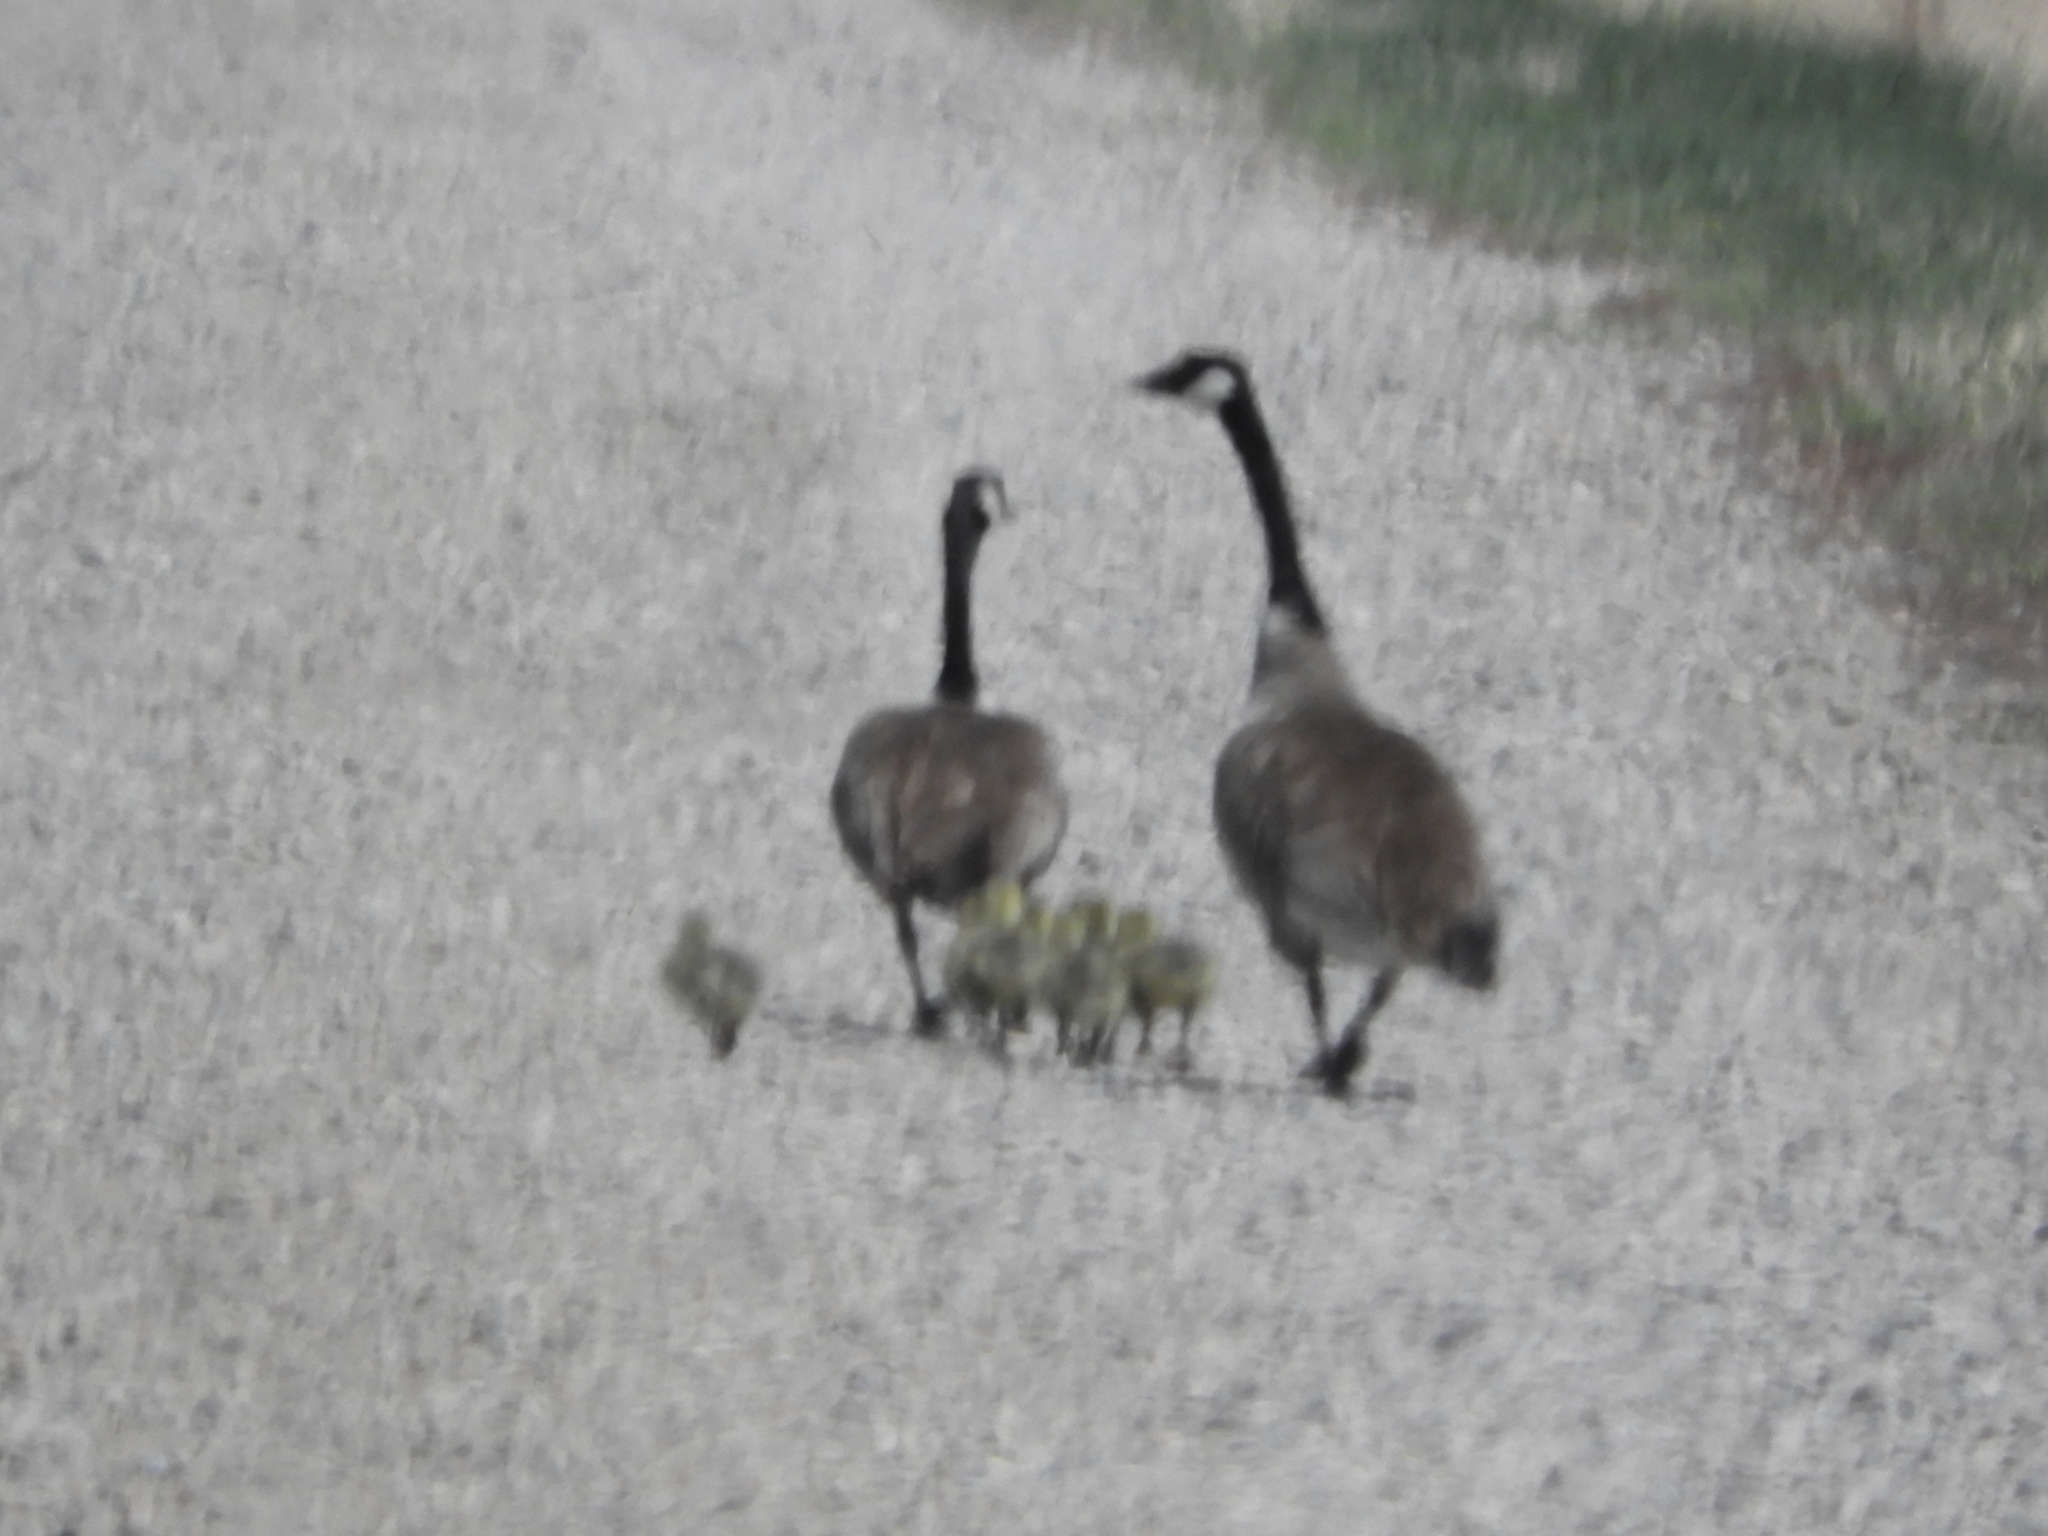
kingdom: Animalia
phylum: Chordata
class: Aves
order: Anseriformes
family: Anatidae
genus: Branta
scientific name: Branta canadensis
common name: Canada goose
